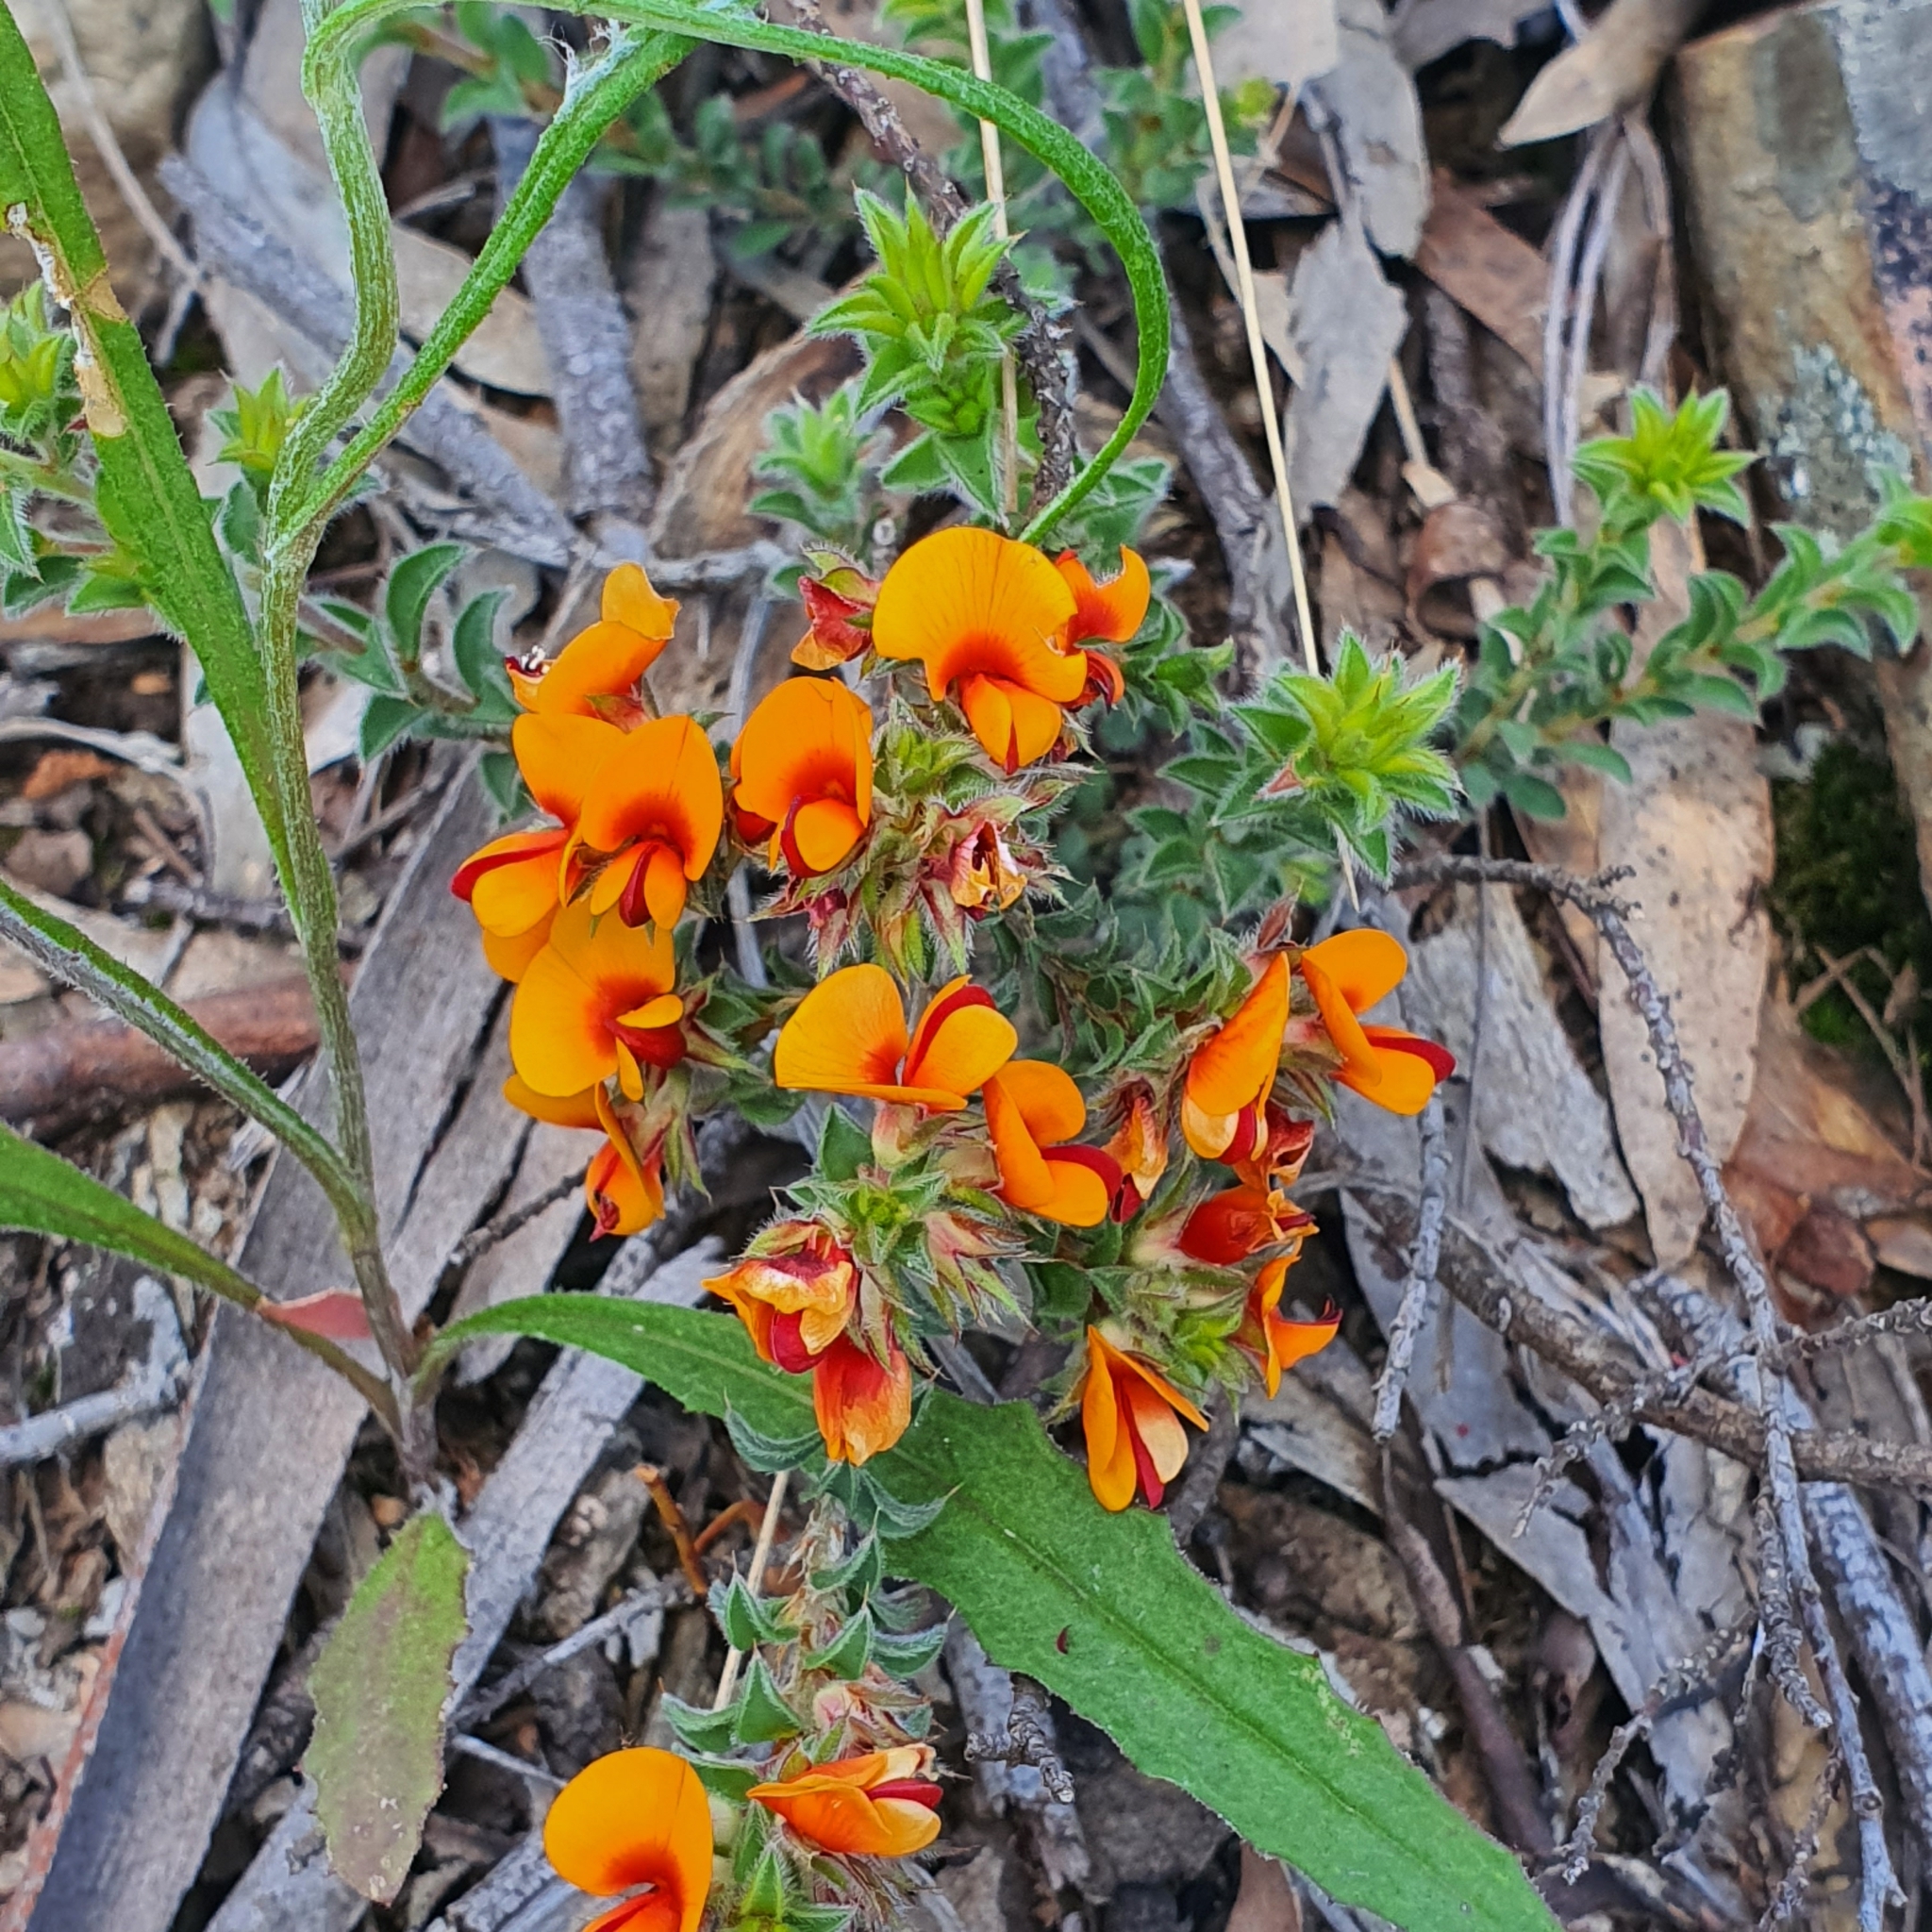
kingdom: Plantae
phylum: Tracheophyta
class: Magnoliopsida
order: Fabales
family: Fabaceae
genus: Pultenaea
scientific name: Pultenaea procumbens
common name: Heathy bush-pea
